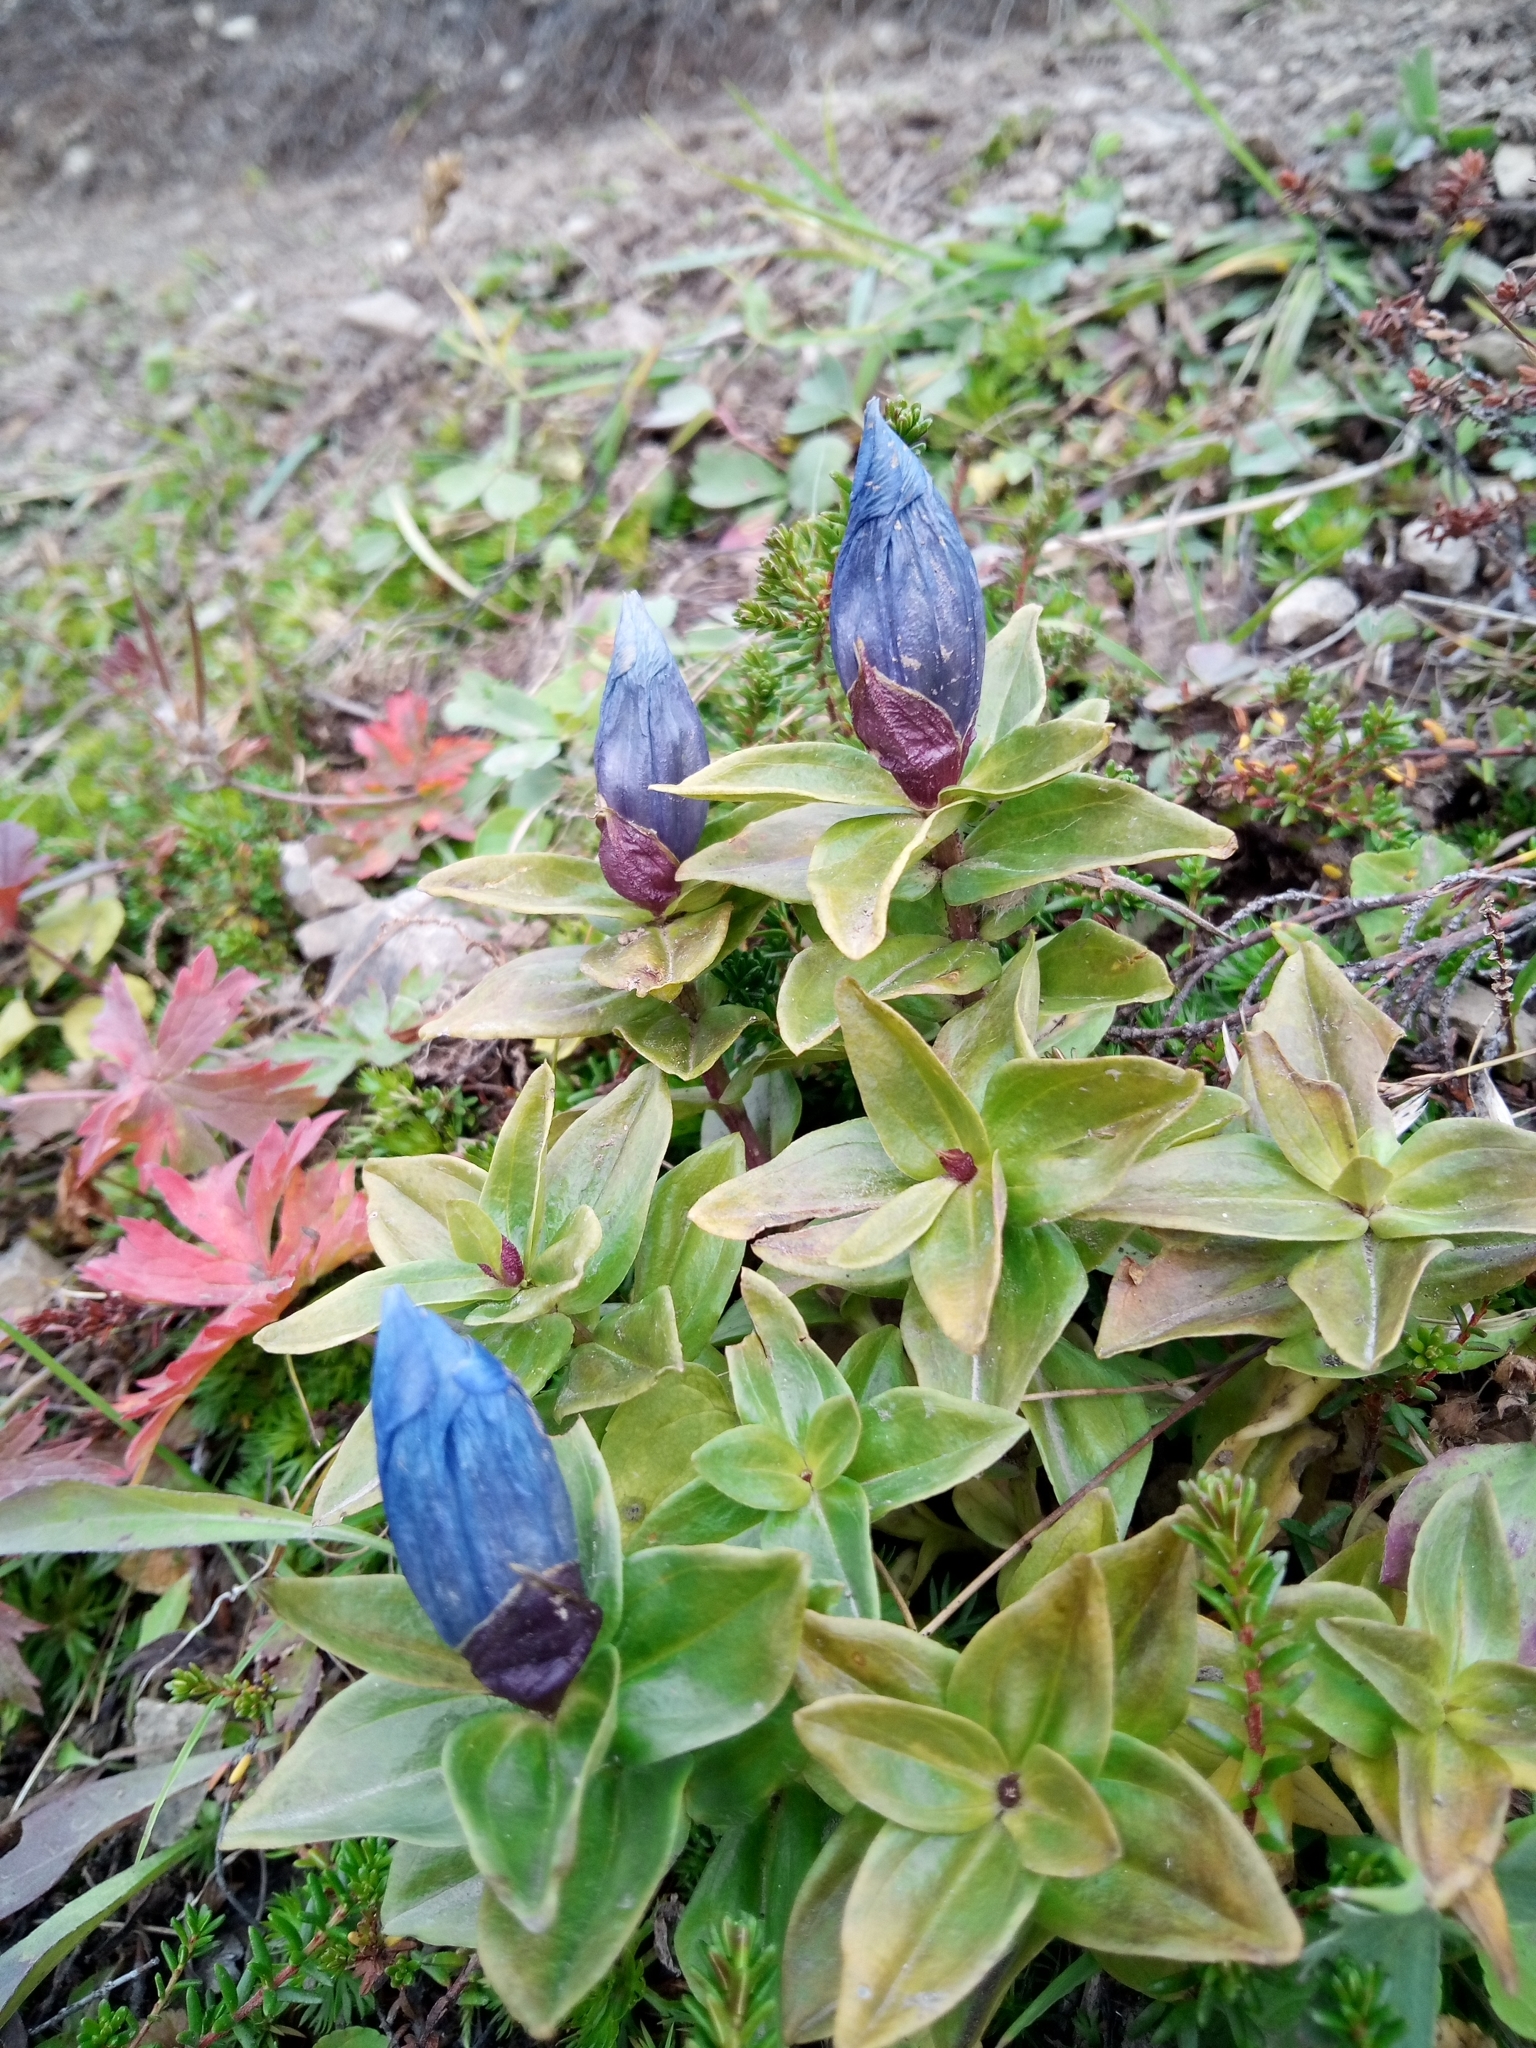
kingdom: Plantae
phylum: Tracheophyta
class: Magnoliopsida
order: Gentianales
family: Gentianaceae
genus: Gentiana
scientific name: Gentiana platypetala
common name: Broad-petalled gentian
